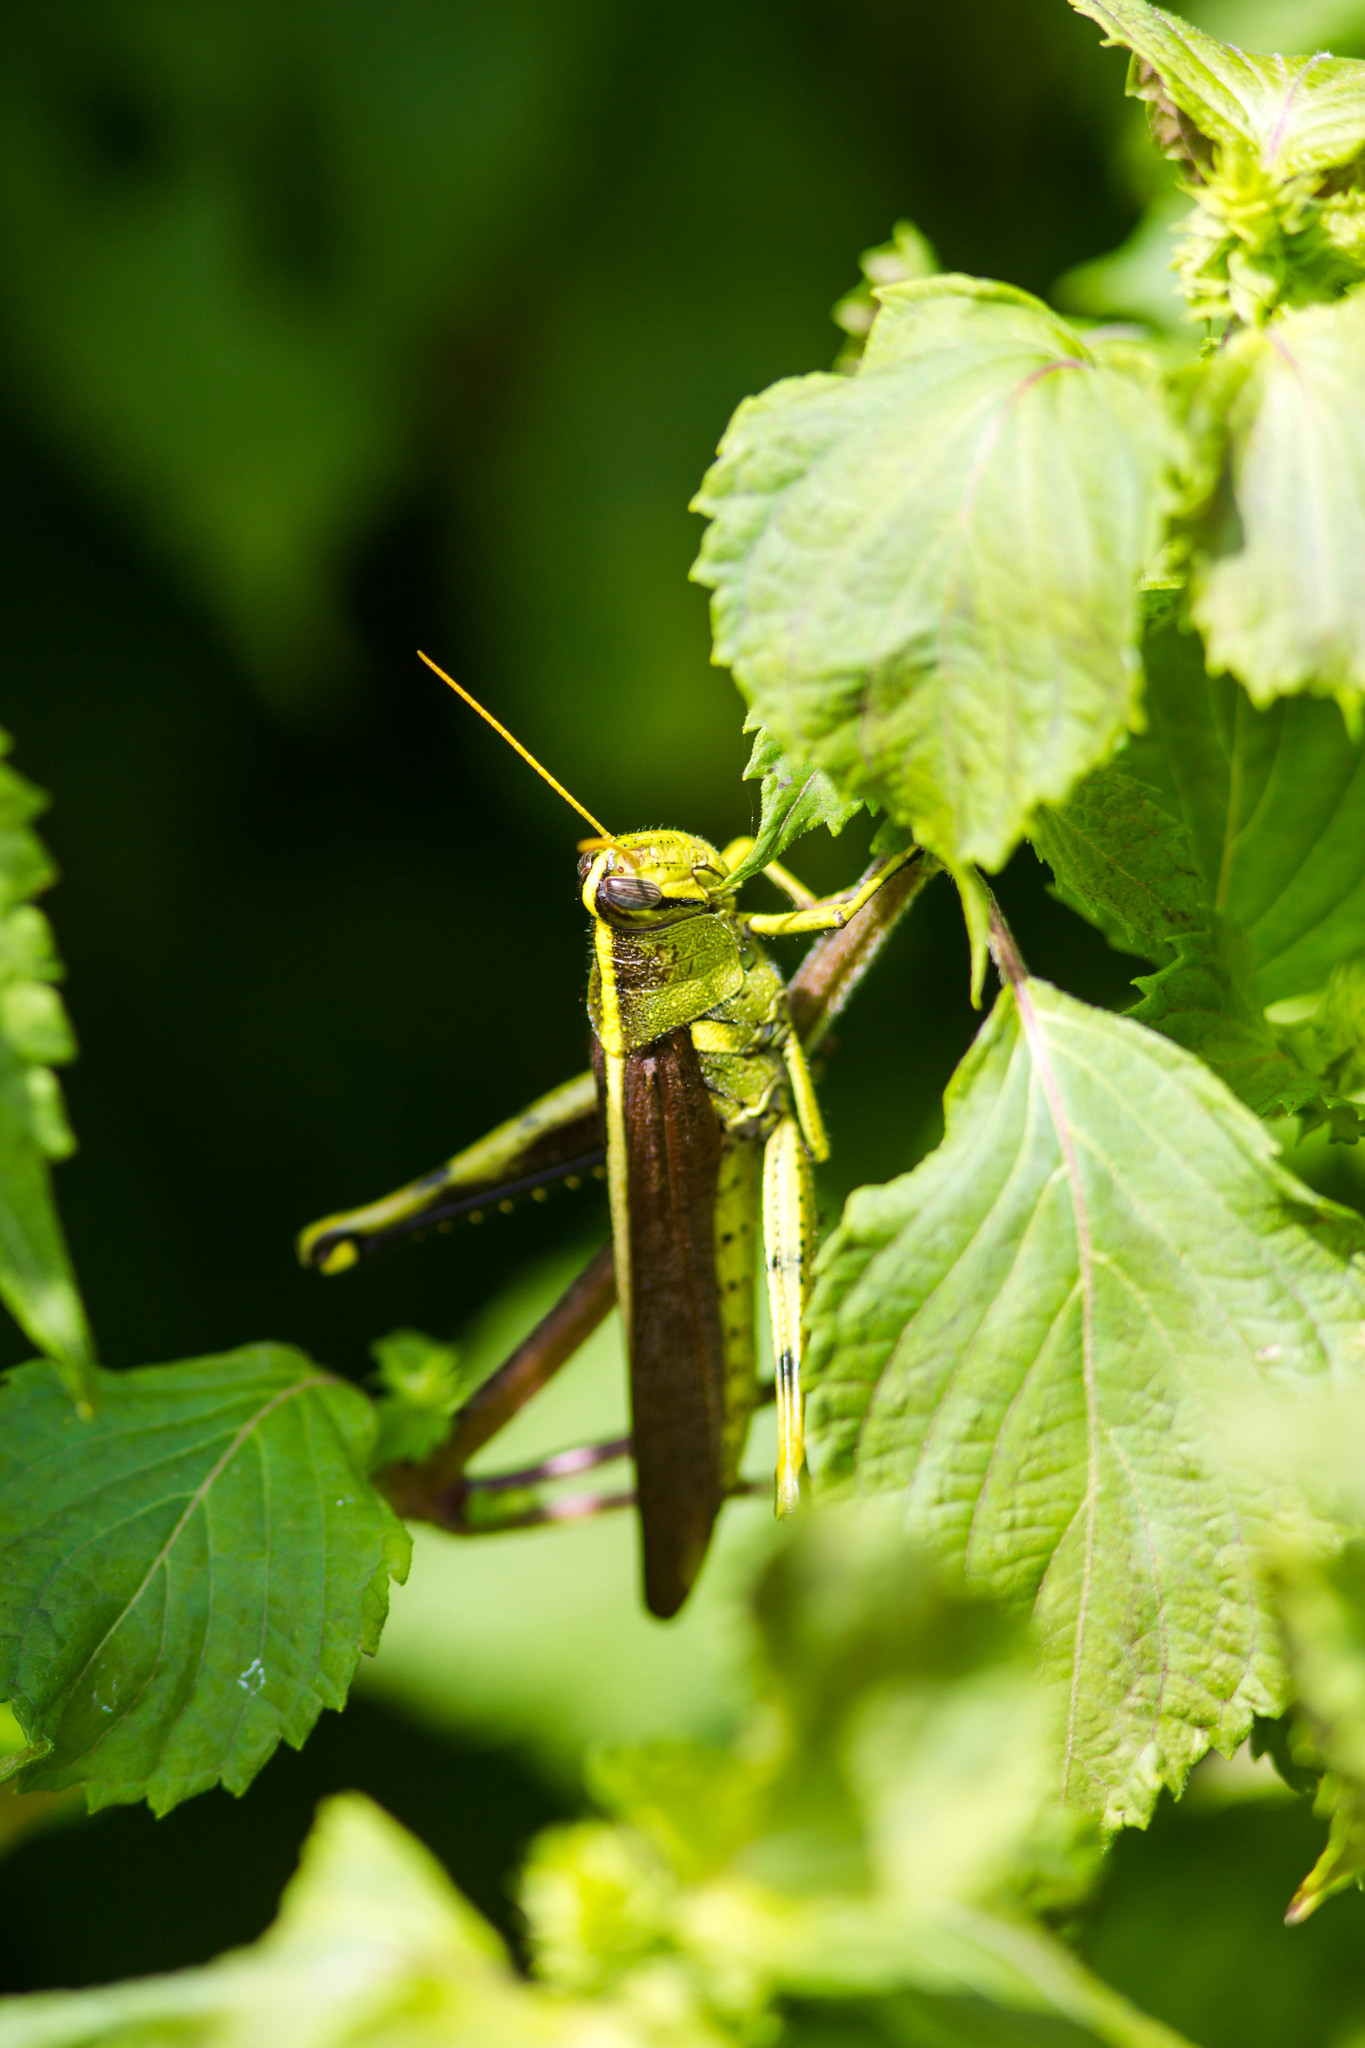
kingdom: Animalia
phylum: Arthropoda
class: Insecta
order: Orthoptera
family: Acrididae
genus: Schistocerca
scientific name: Schistocerca obscura
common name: Obscure bird grasshopper
